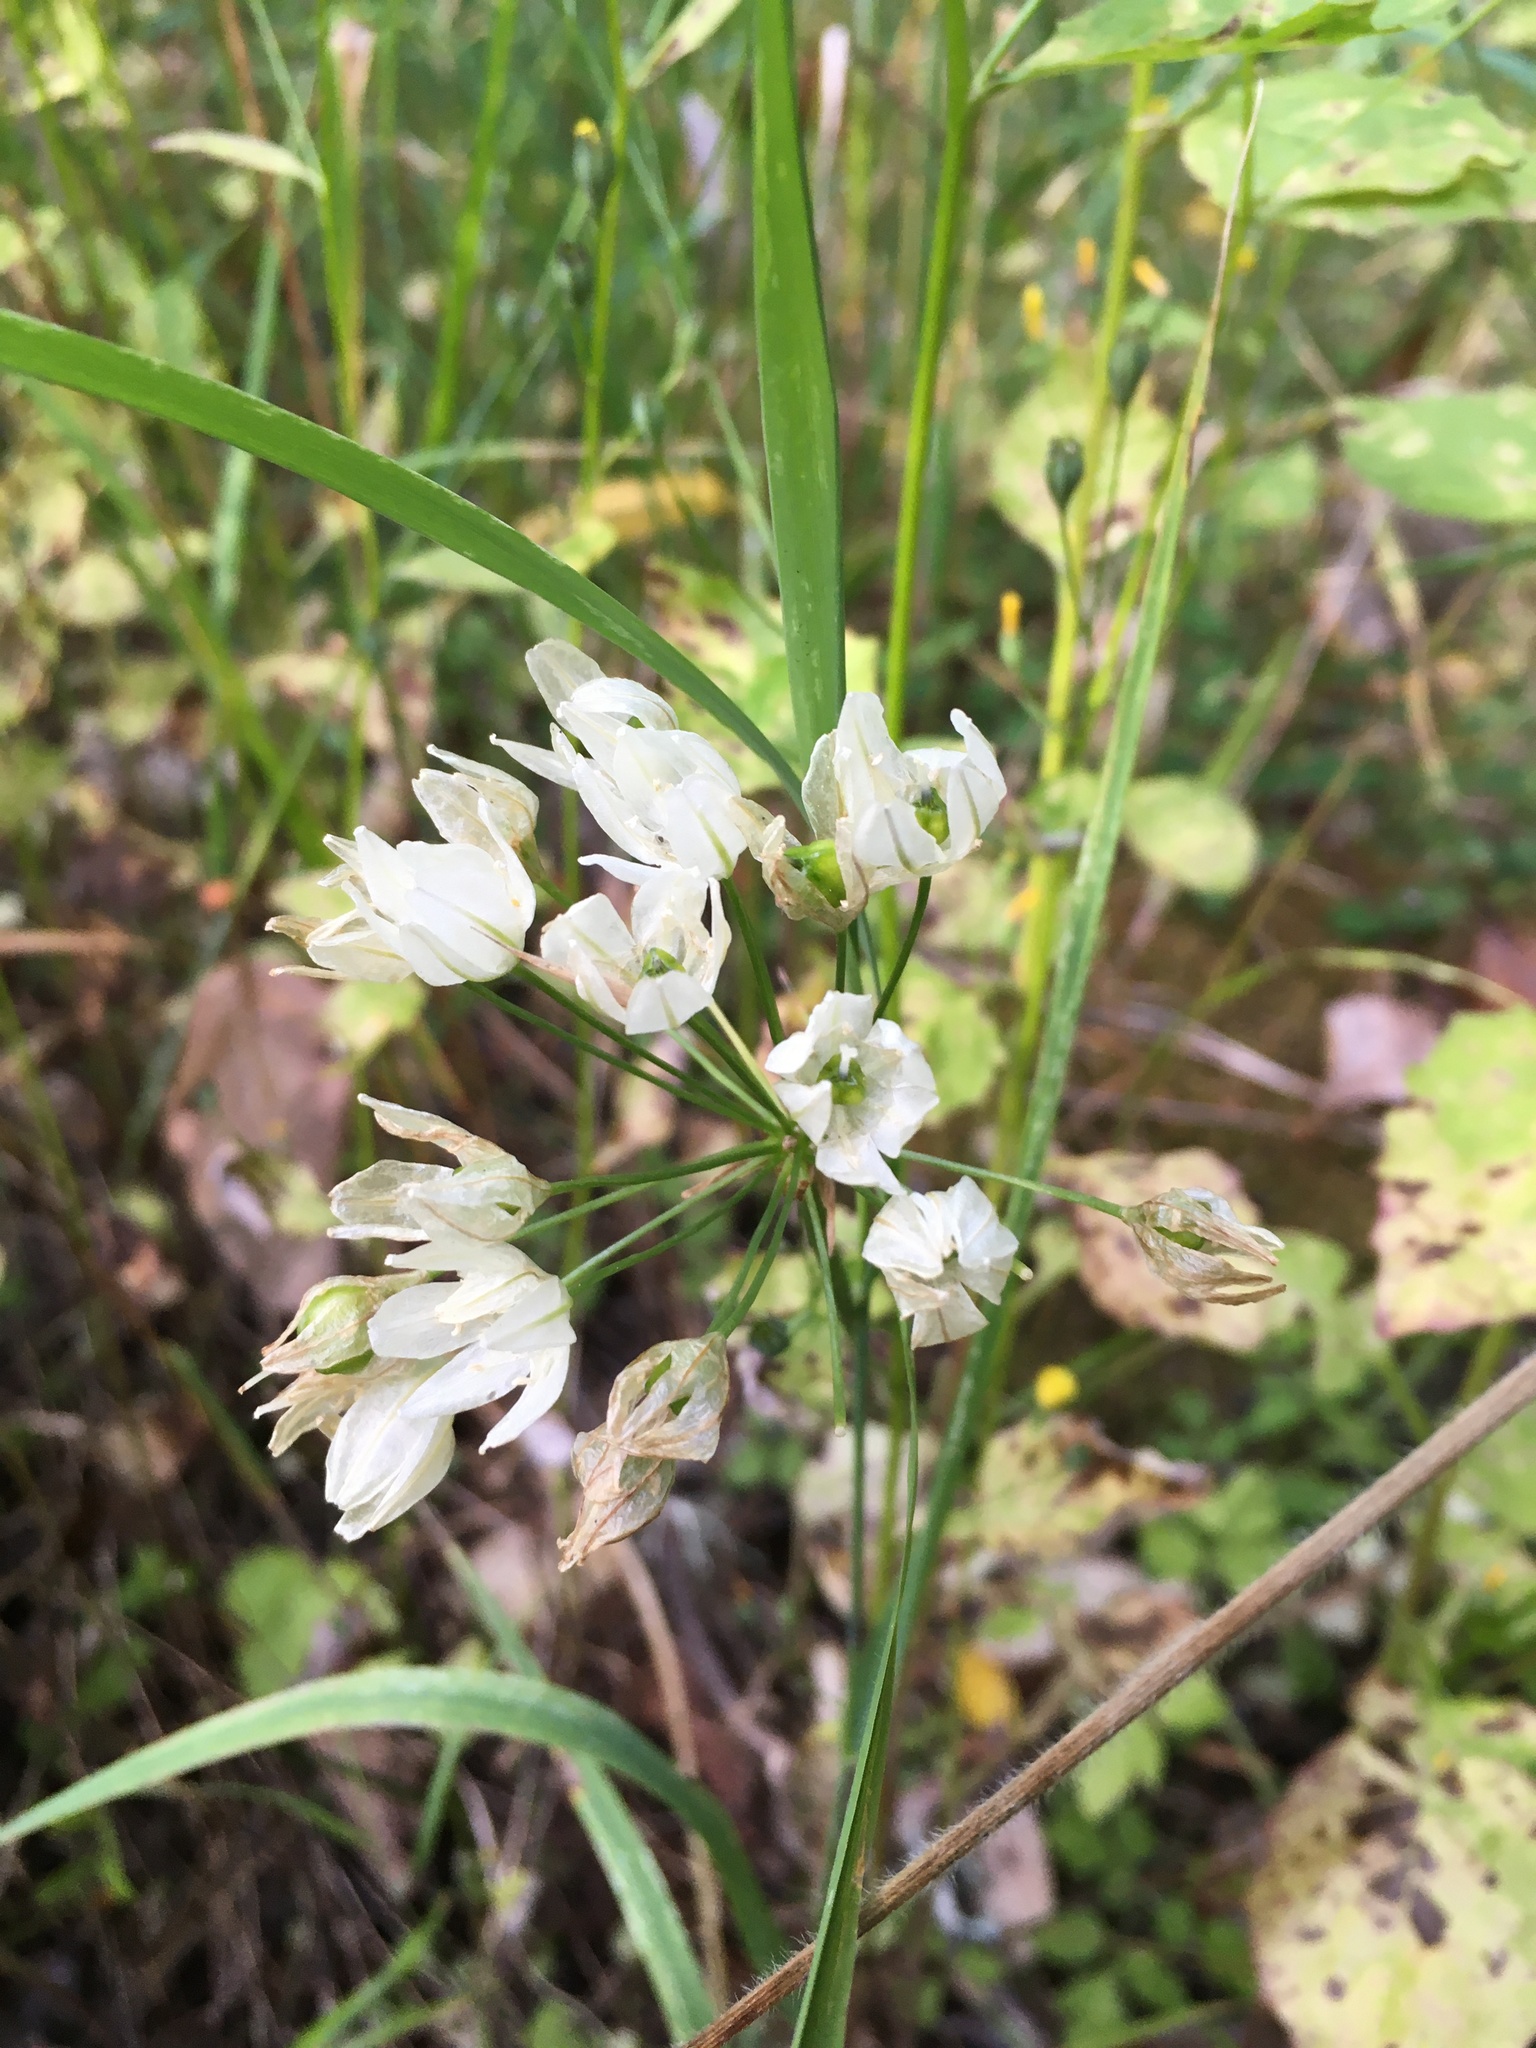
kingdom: Plantae
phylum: Tracheophyta
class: Liliopsida
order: Asparagales
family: Asparagaceae
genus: Triteleia
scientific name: Triteleia hyacinthina
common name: White brodiaea
